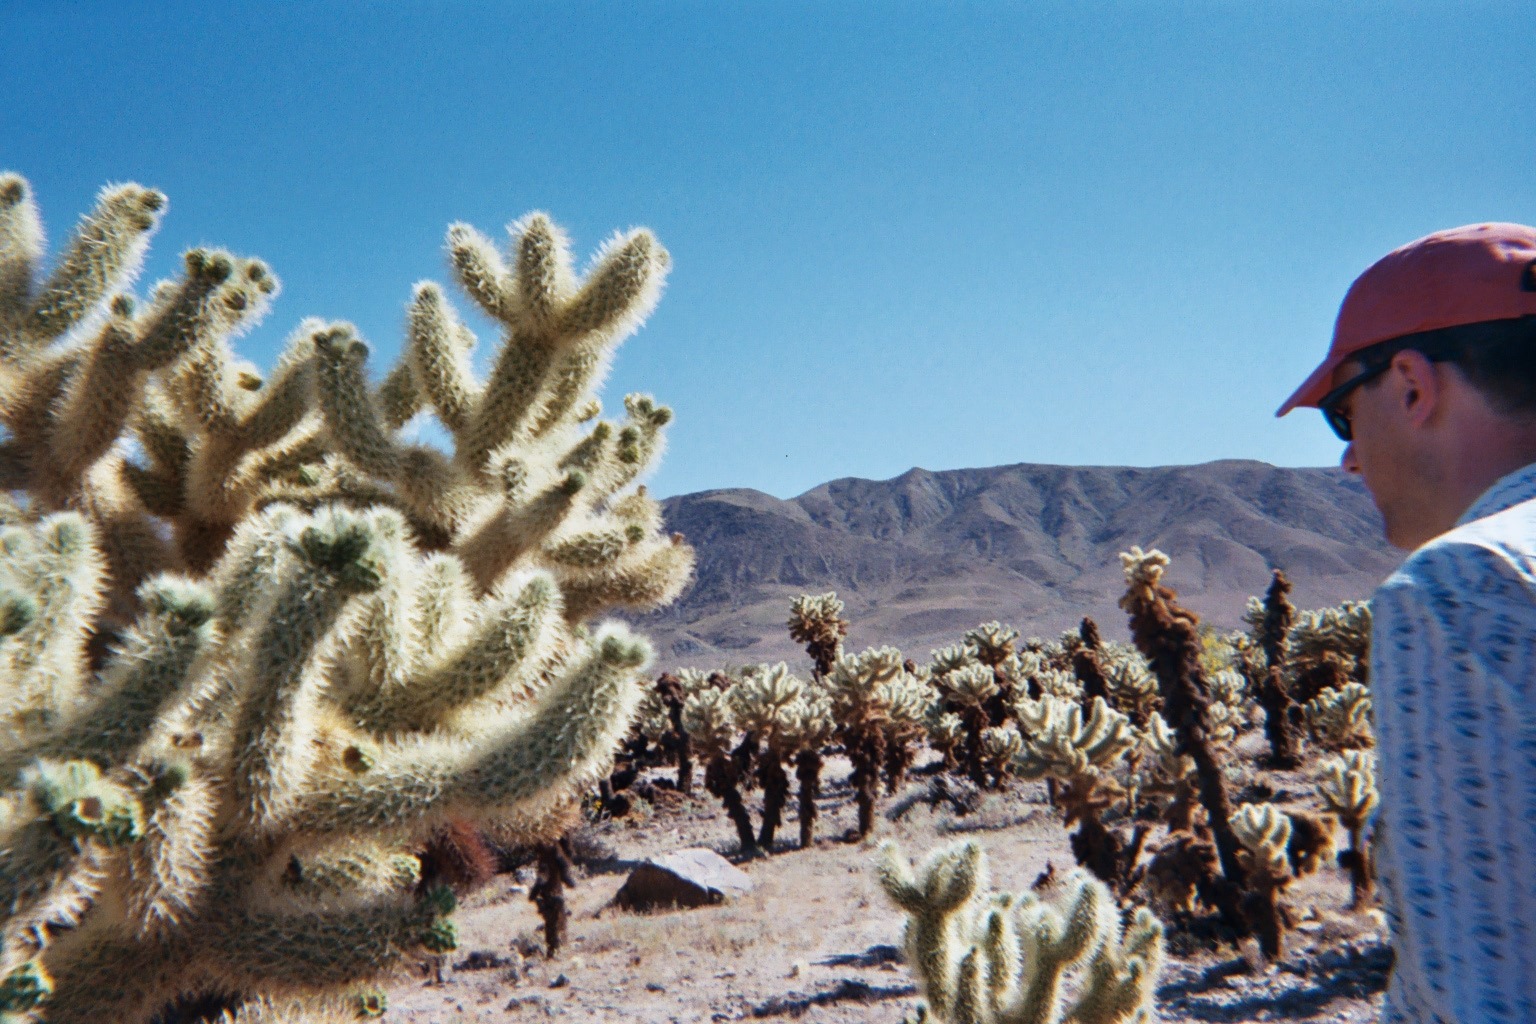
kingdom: Plantae
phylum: Tracheophyta
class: Magnoliopsida
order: Caryophyllales
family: Cactaceae
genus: Cylindropuntia
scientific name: Cylindropuntia fosbergii
